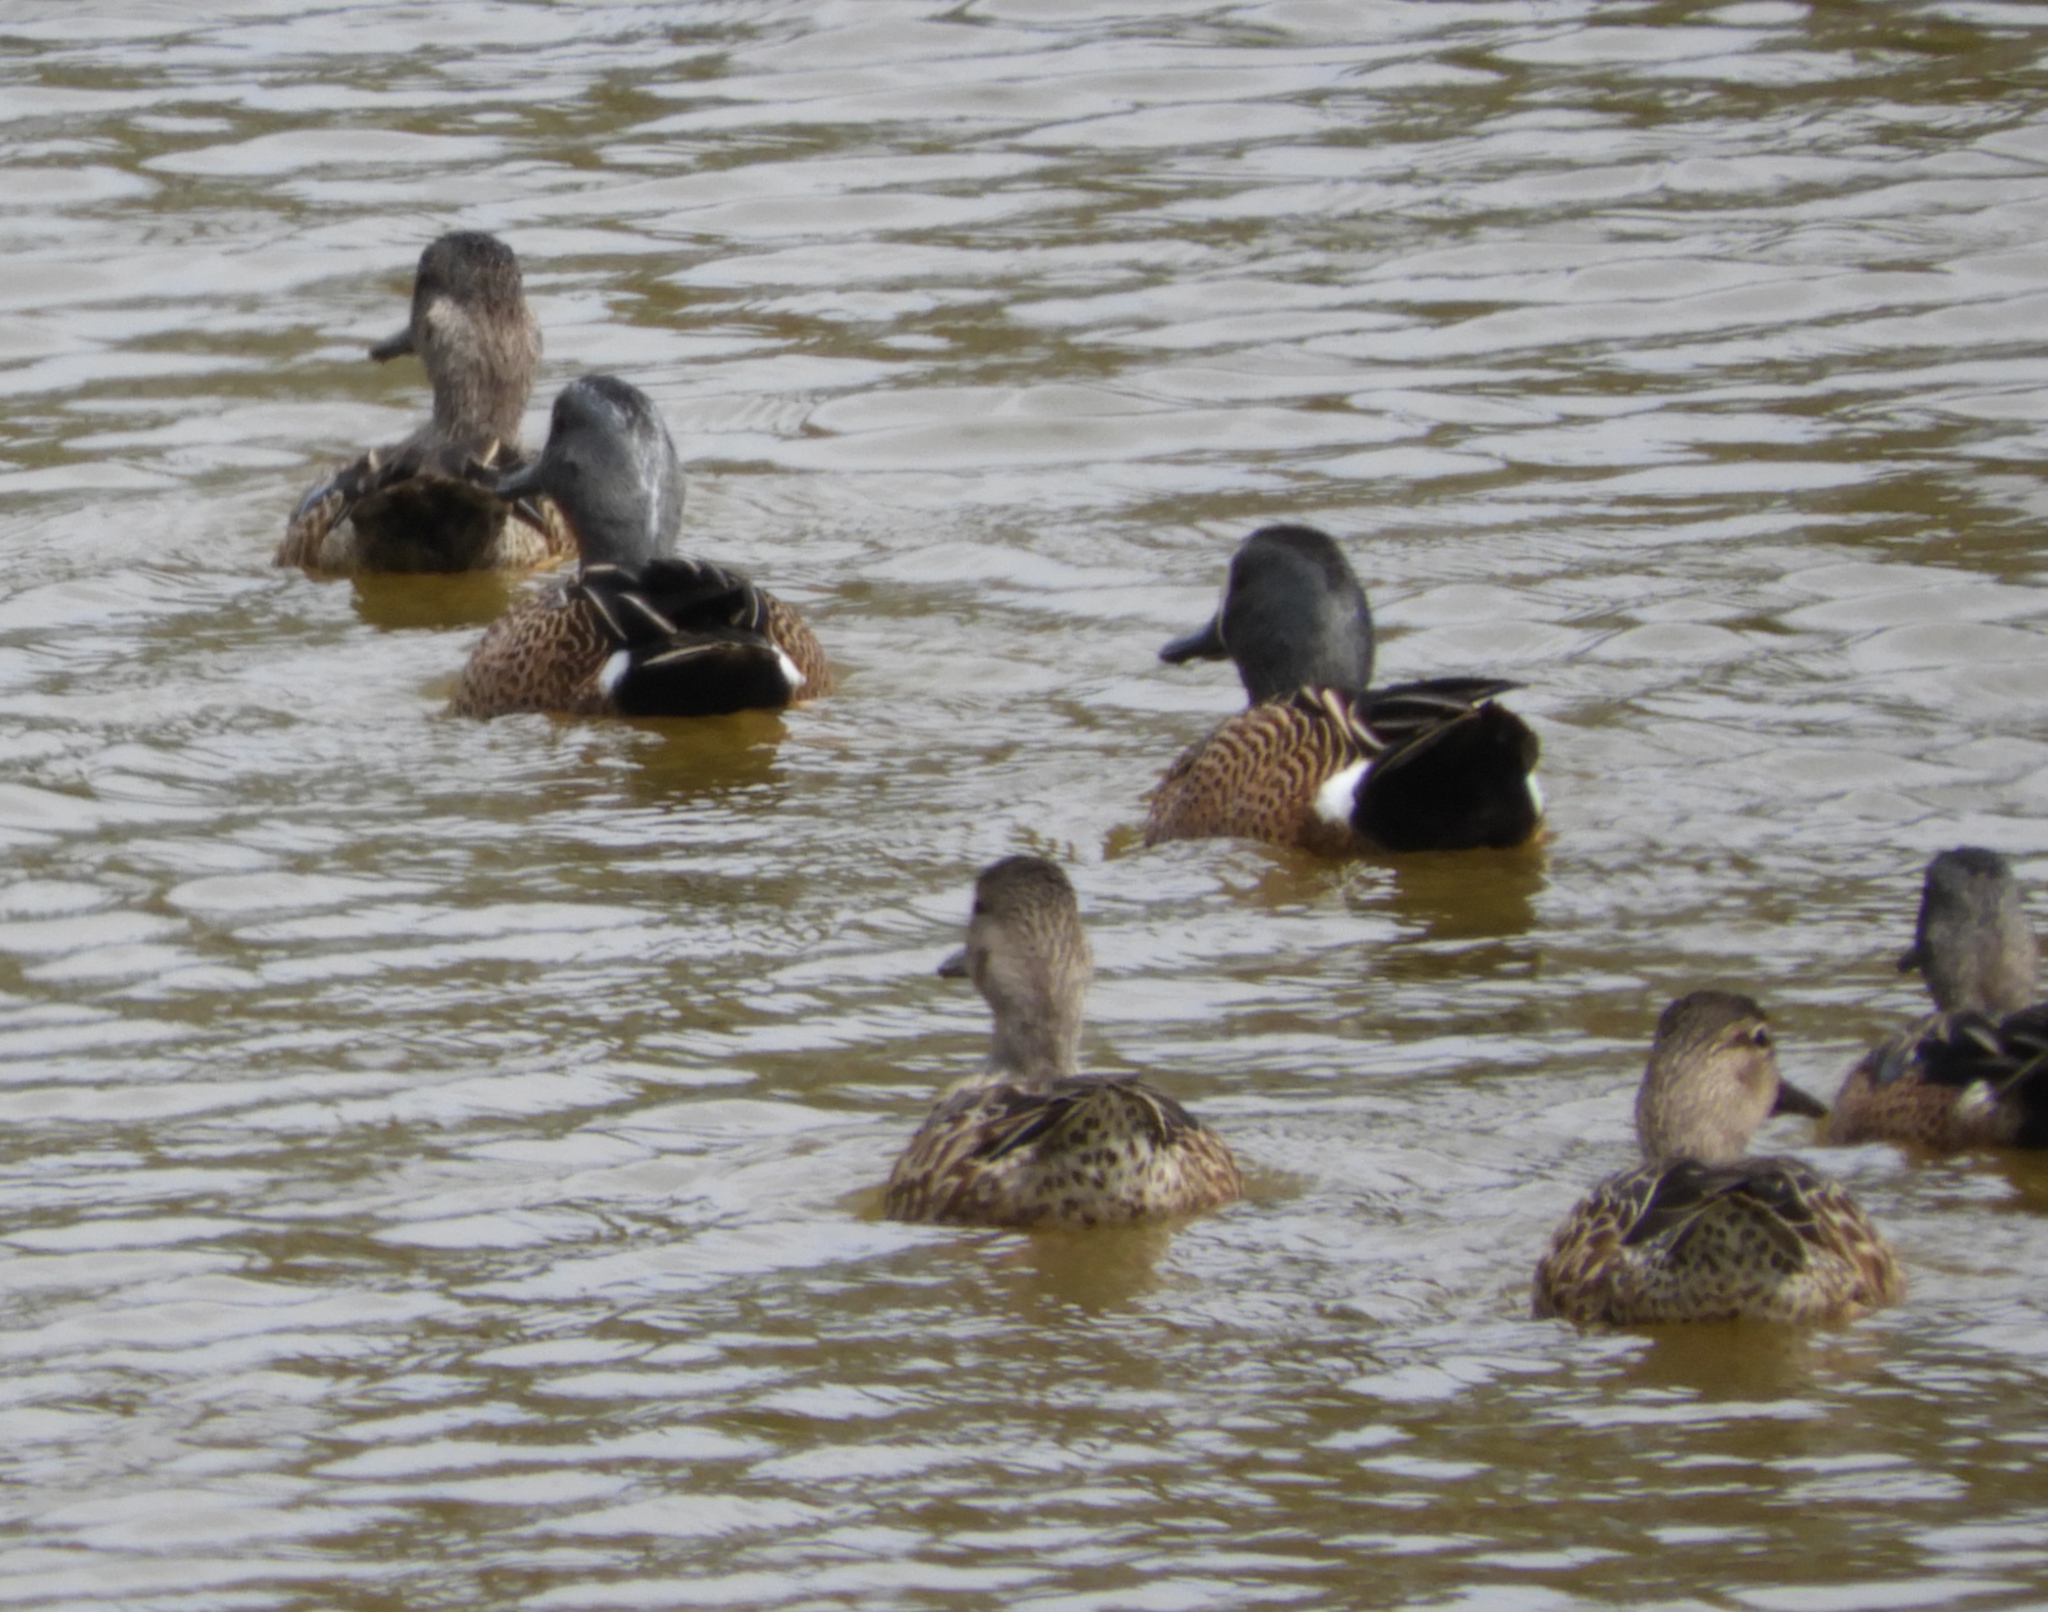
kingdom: Animalia
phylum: Chordata
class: Aves
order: Anseriformes
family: Anatidae
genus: Spatula
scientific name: Spatula discors
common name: Blue-winged teal
